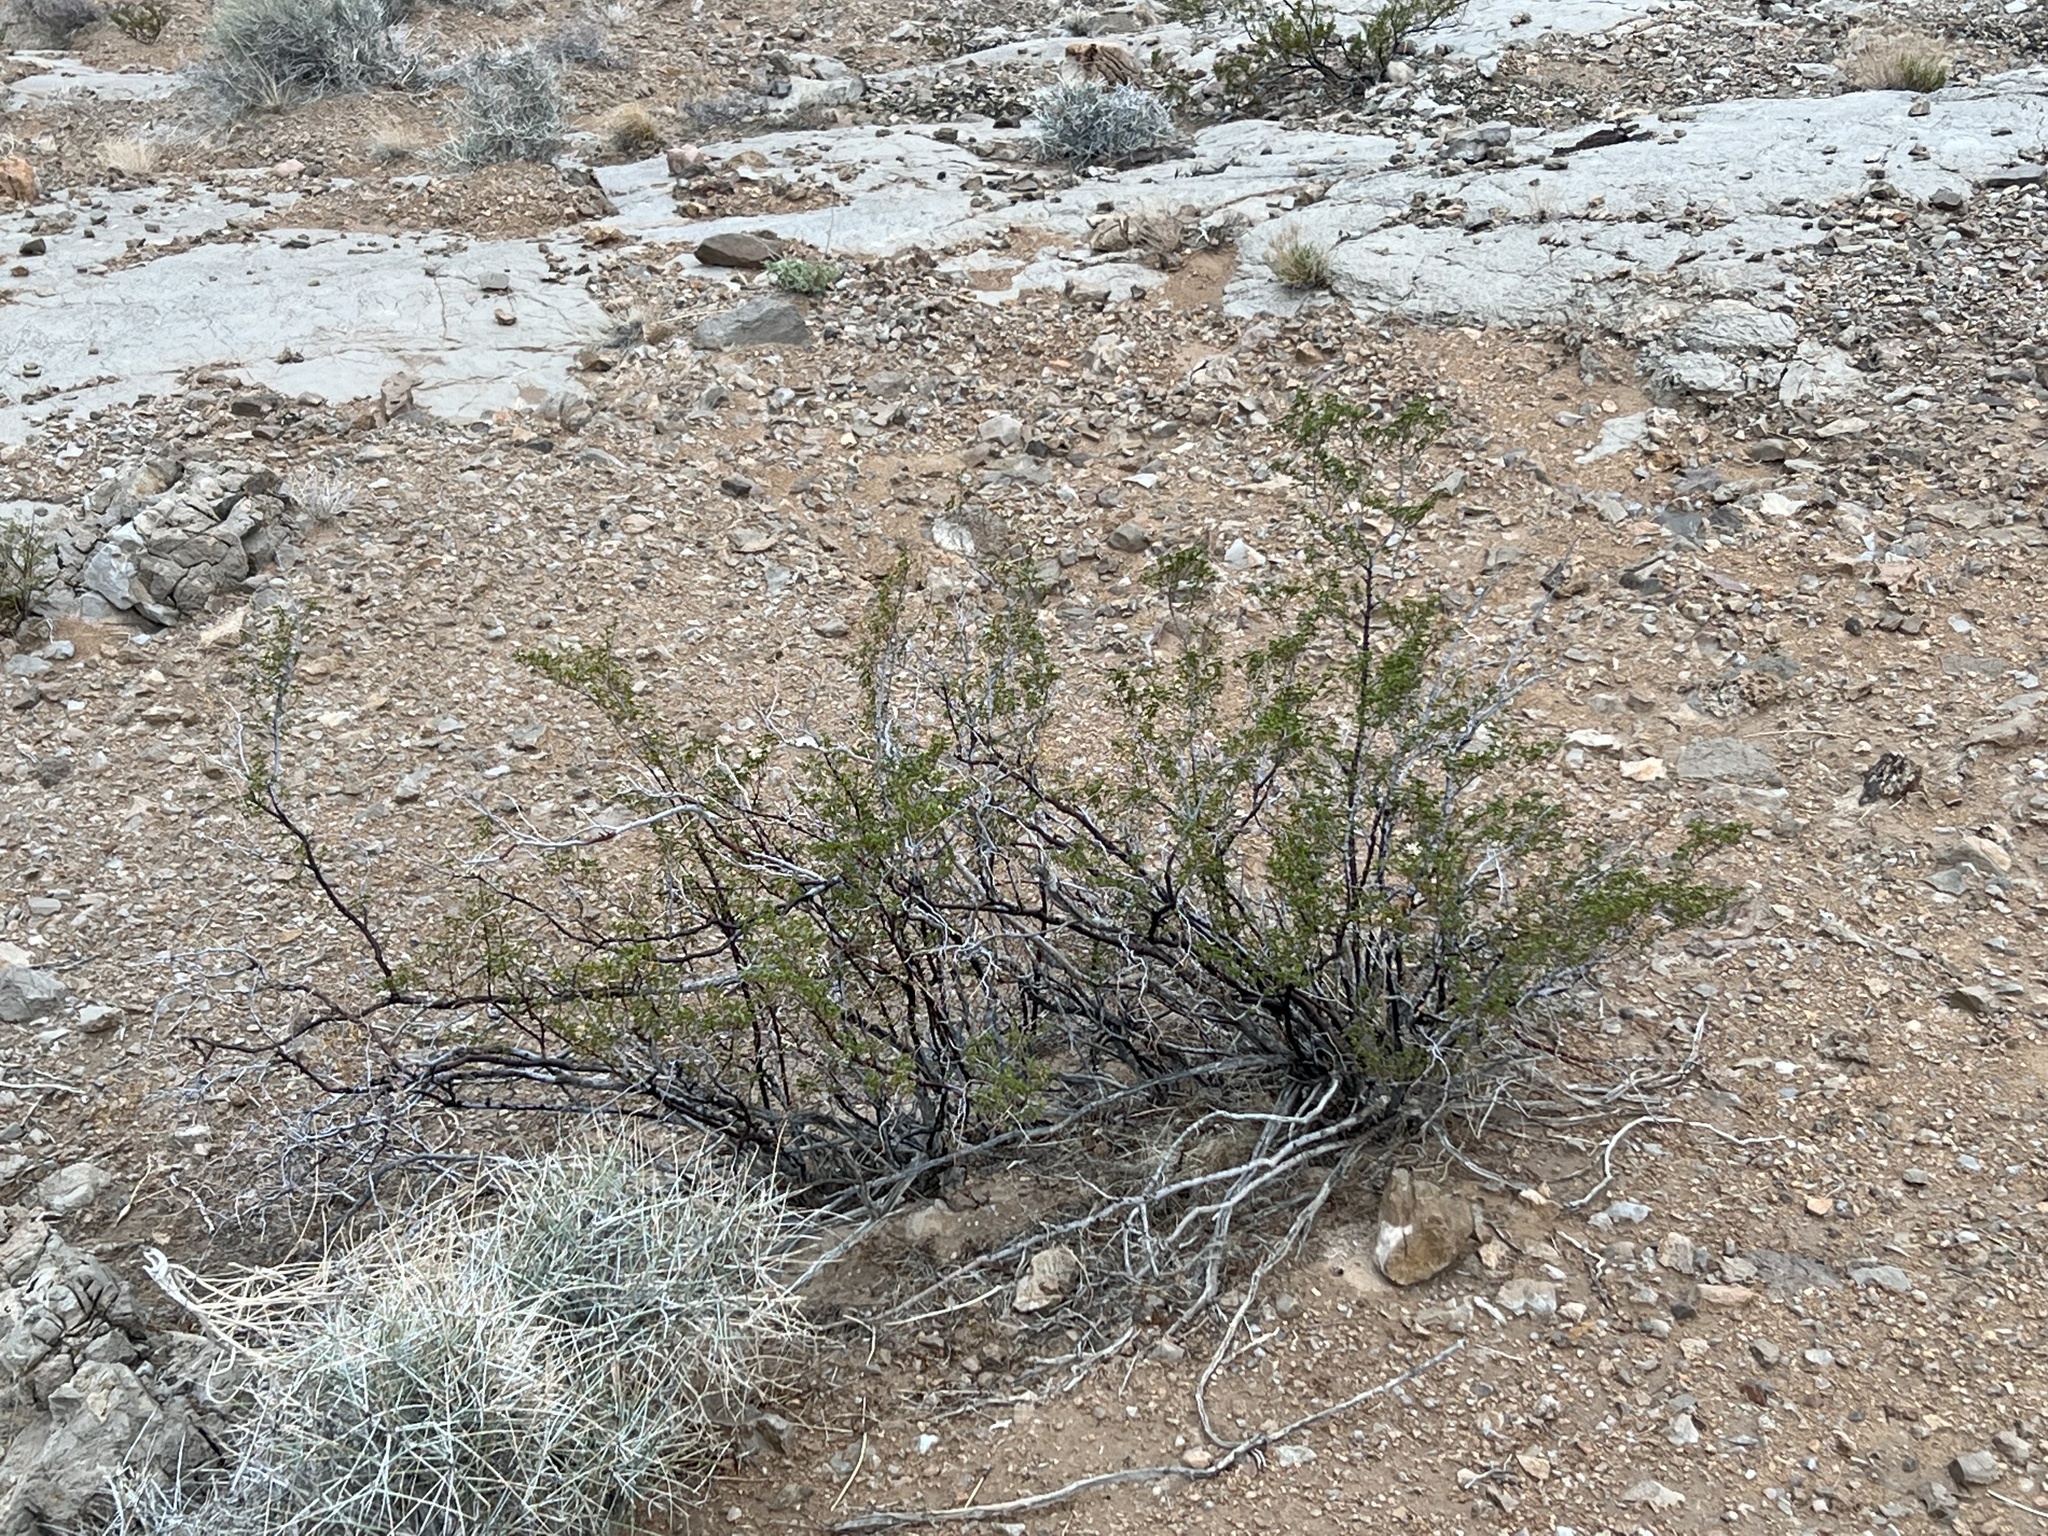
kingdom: Plantae
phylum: Tracheophyta
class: Magnoliopsida
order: Zygophyllales
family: Zygophyllaceae
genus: Larrea
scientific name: Larrea tridentata
